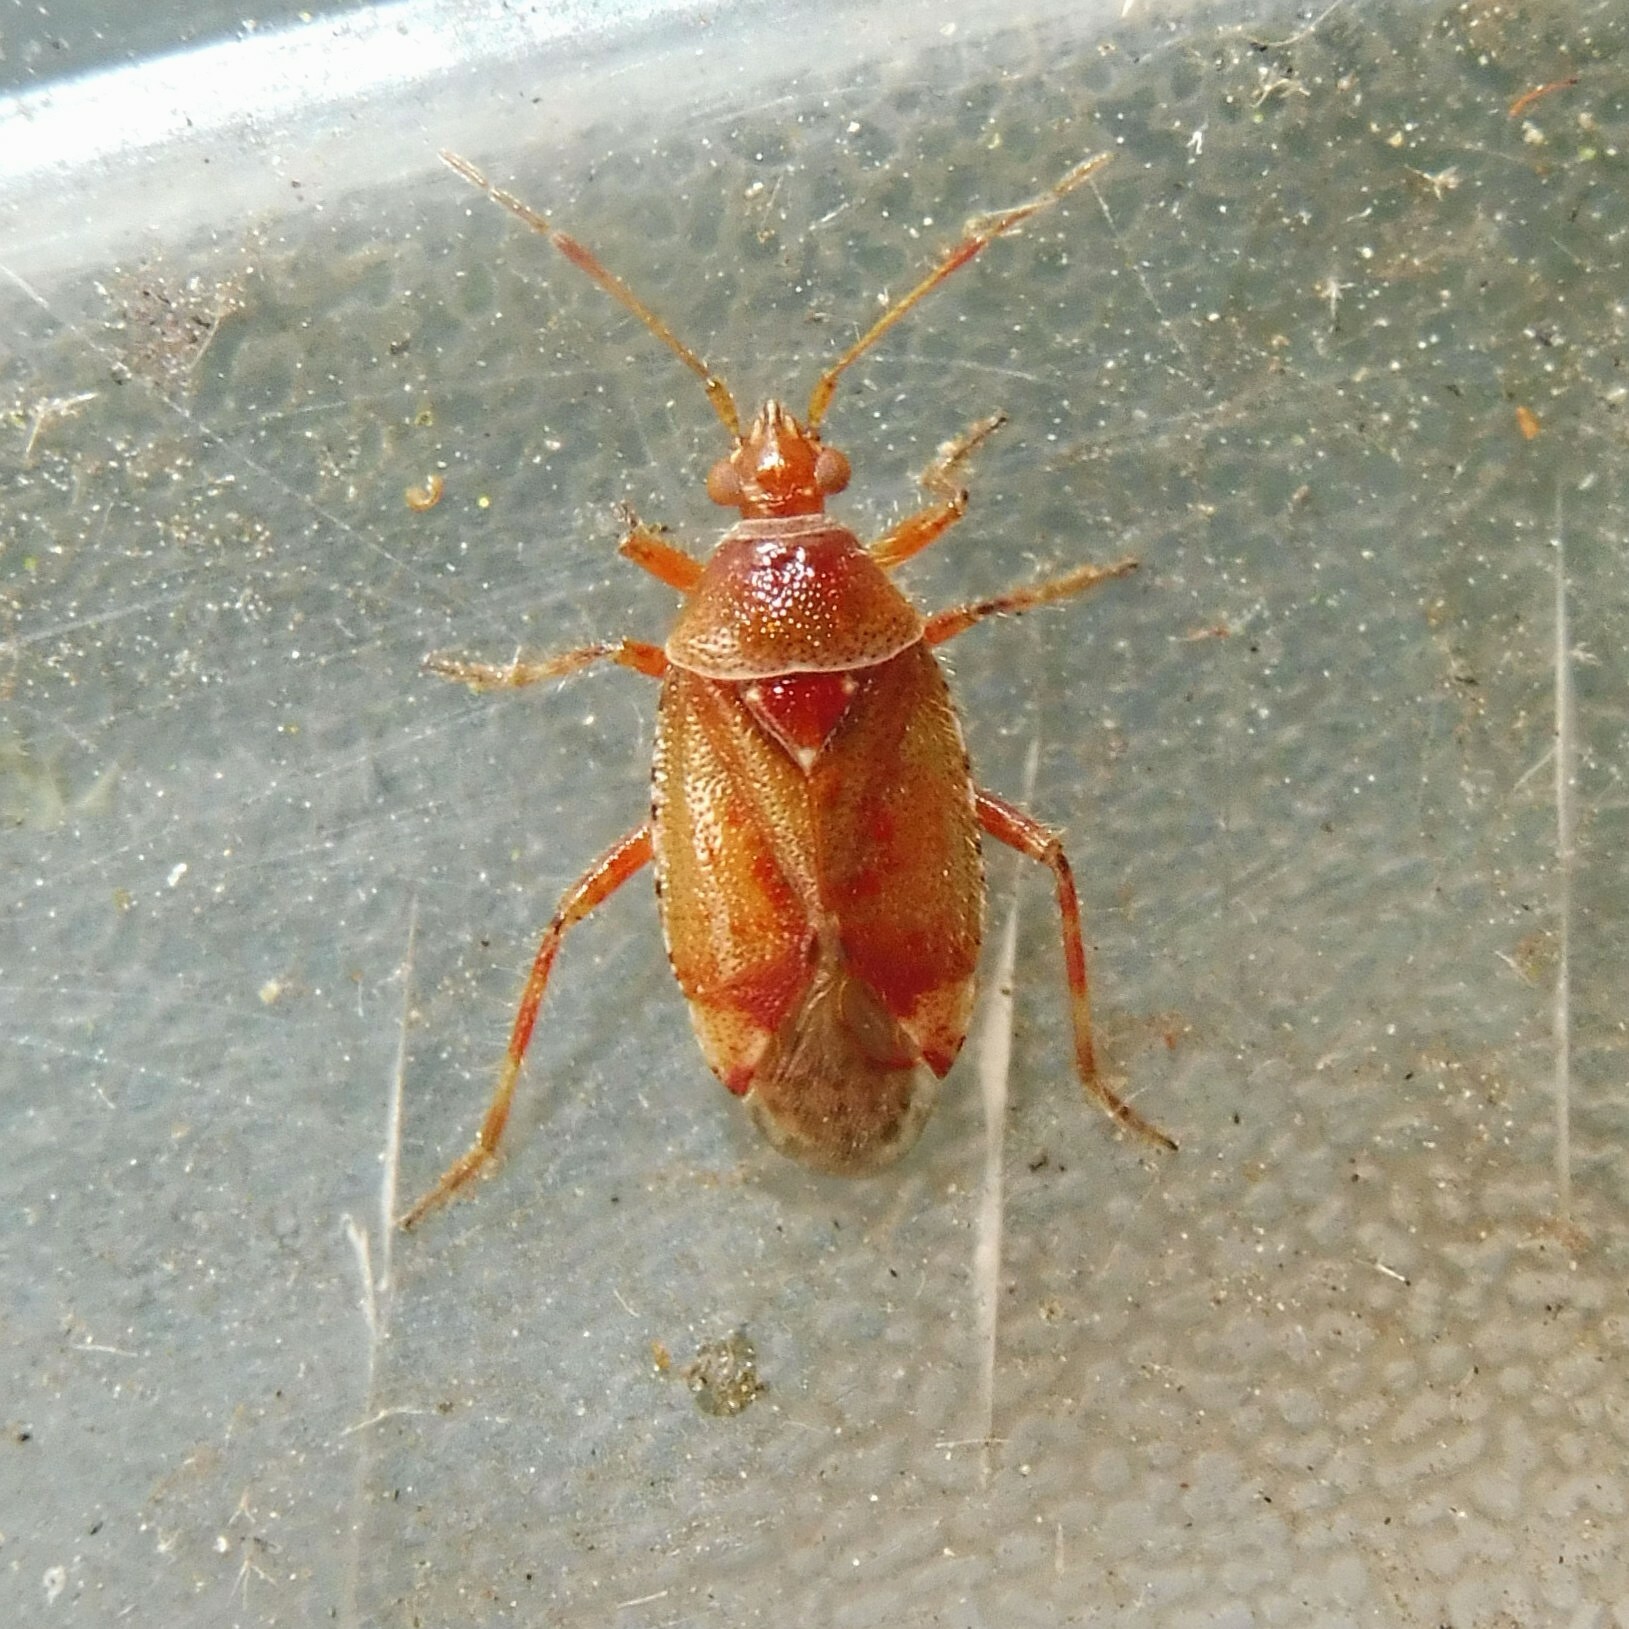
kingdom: Animalia
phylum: Arthropoda
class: Insecta
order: Hemiptera
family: Miridae
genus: Alloeotomus
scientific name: Alloeotomus gothicus
